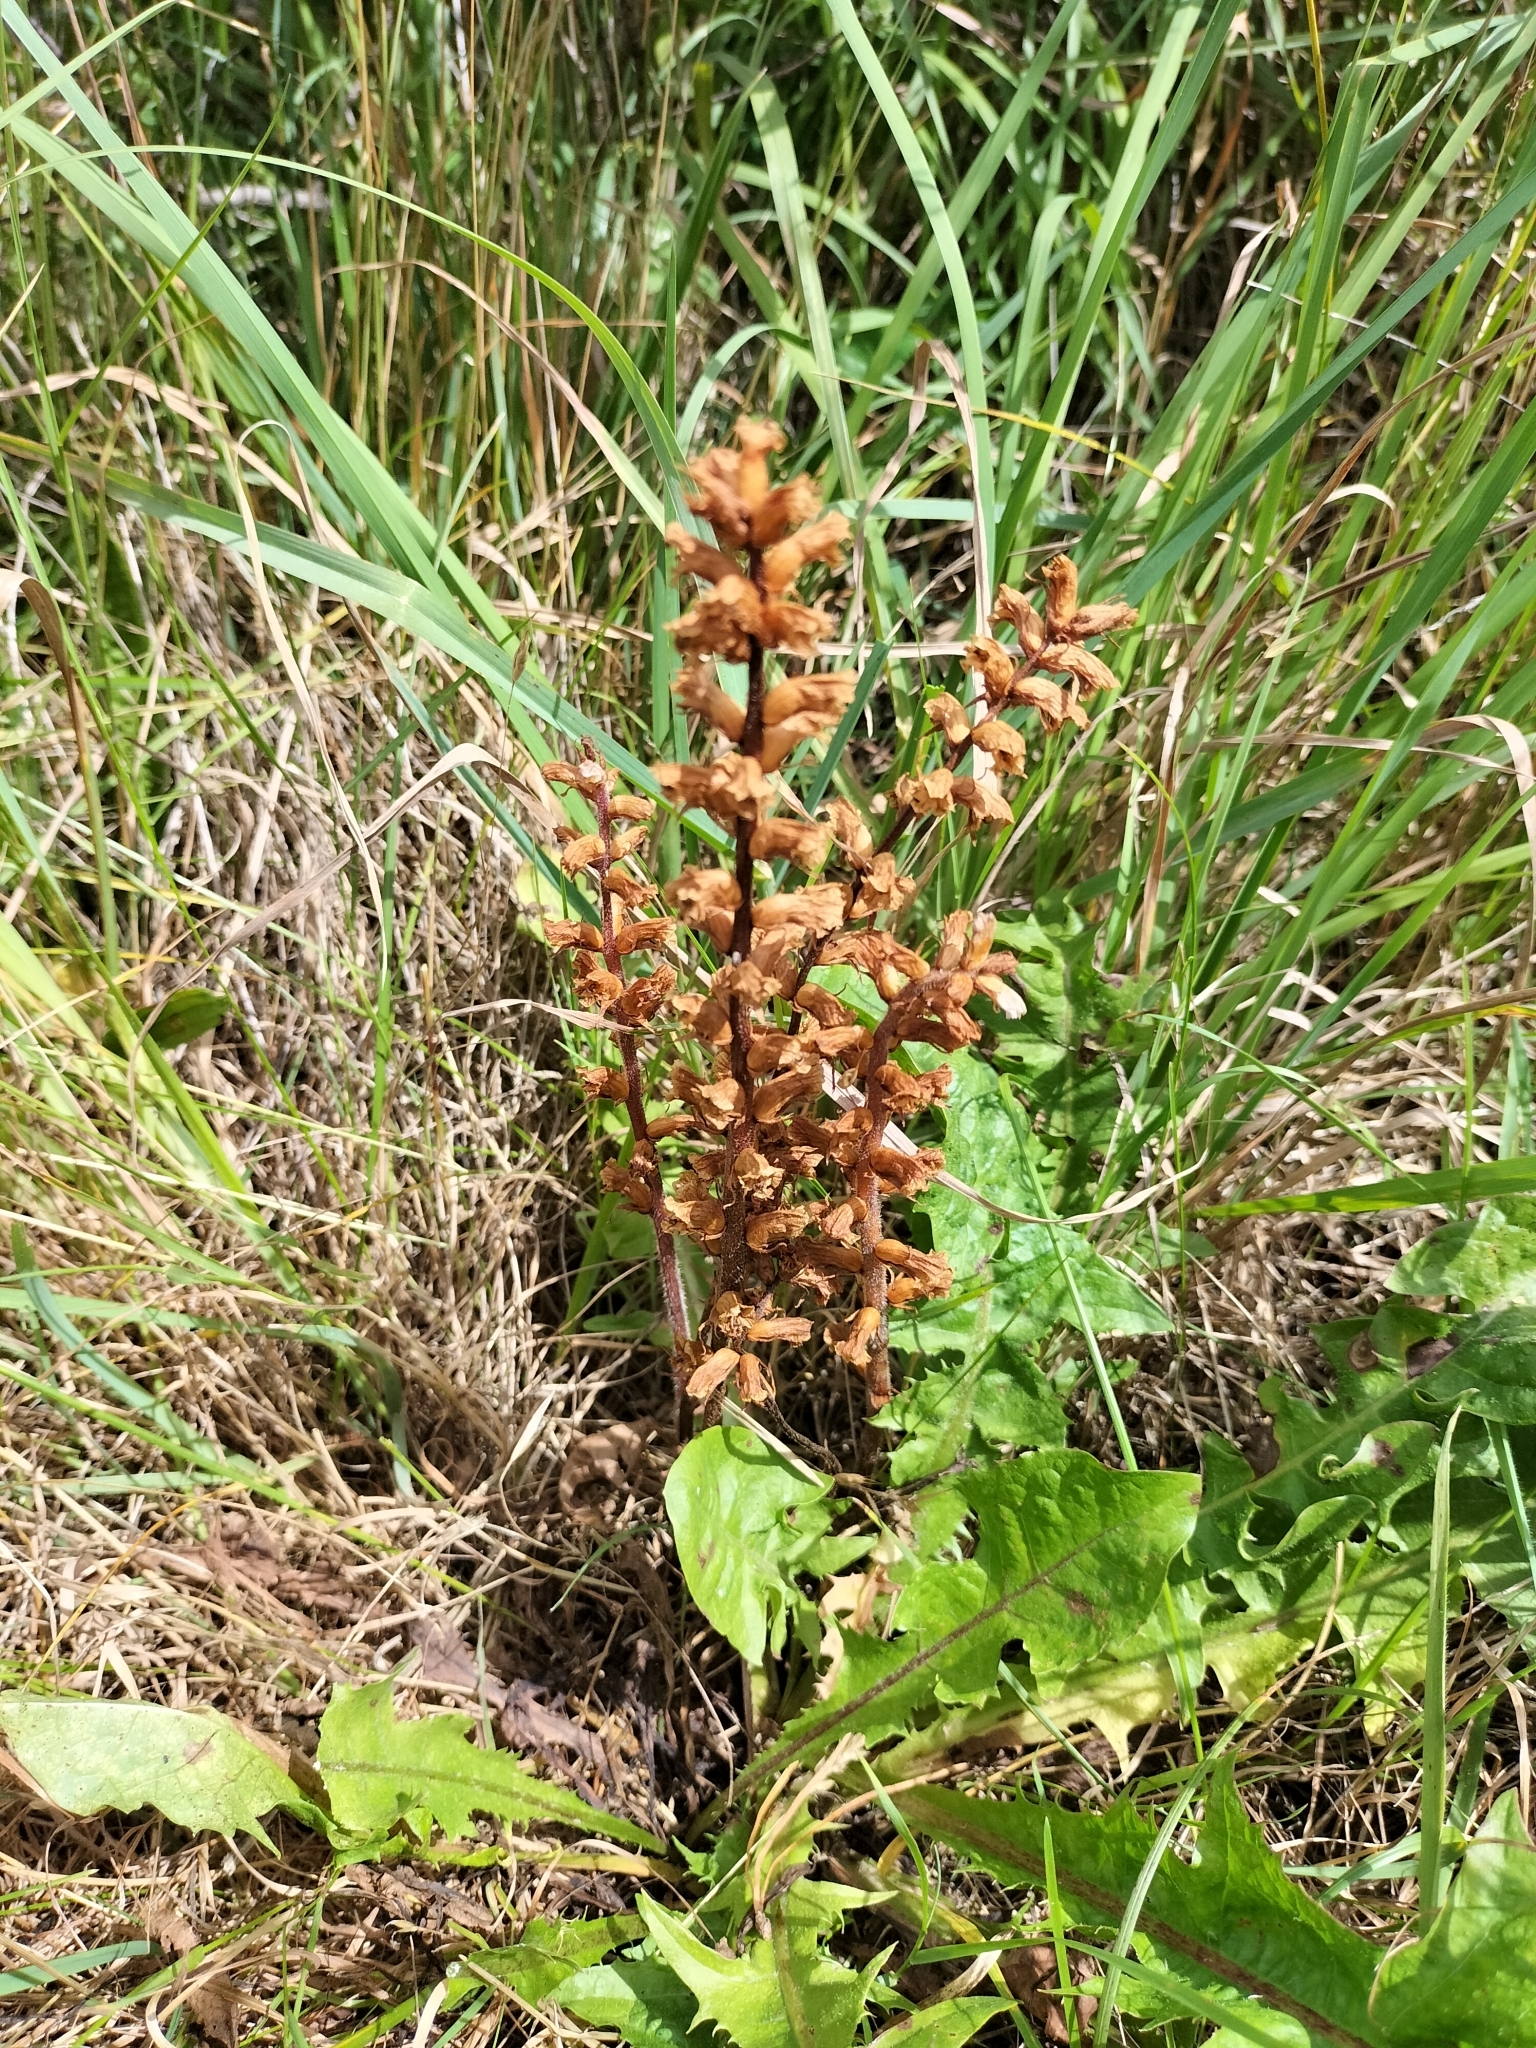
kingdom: Plantae
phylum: Tracheophyta
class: Magnoliopsida
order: Lamiales
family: Orobanchaceae
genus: Orobanche
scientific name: Orobanche minor
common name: Common broomrape
